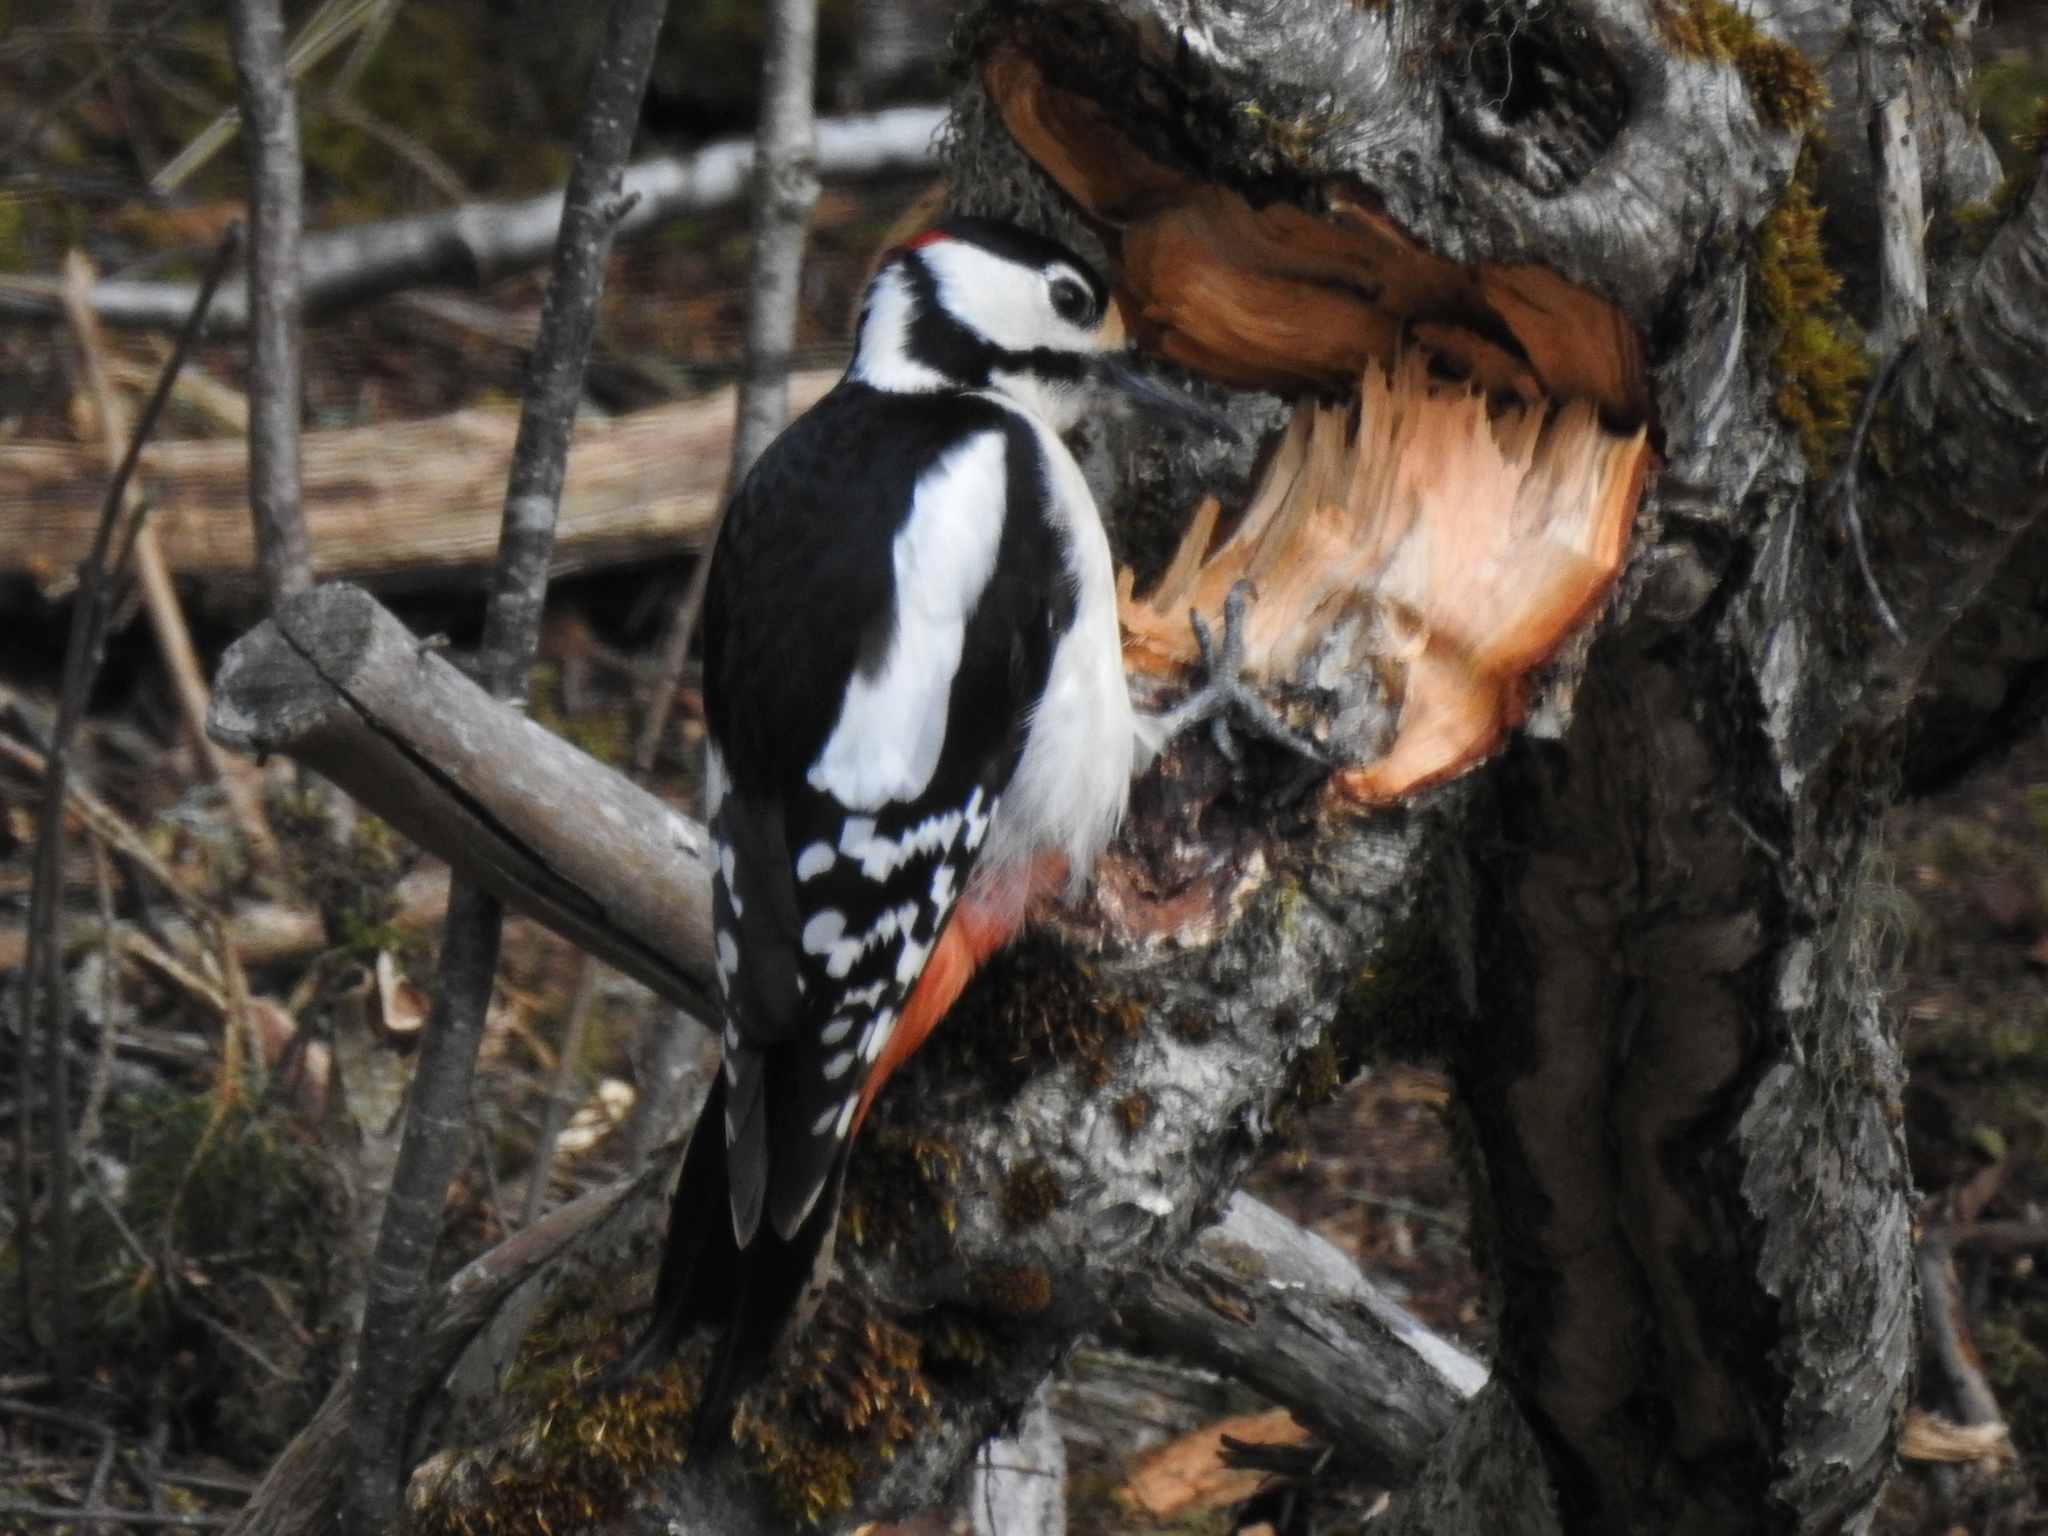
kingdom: Animalia
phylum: Chordata
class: Aves
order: Piciformes
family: Picidae
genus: Dendrocopos
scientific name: Dendrocopos major
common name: Great spotted woodpecker
